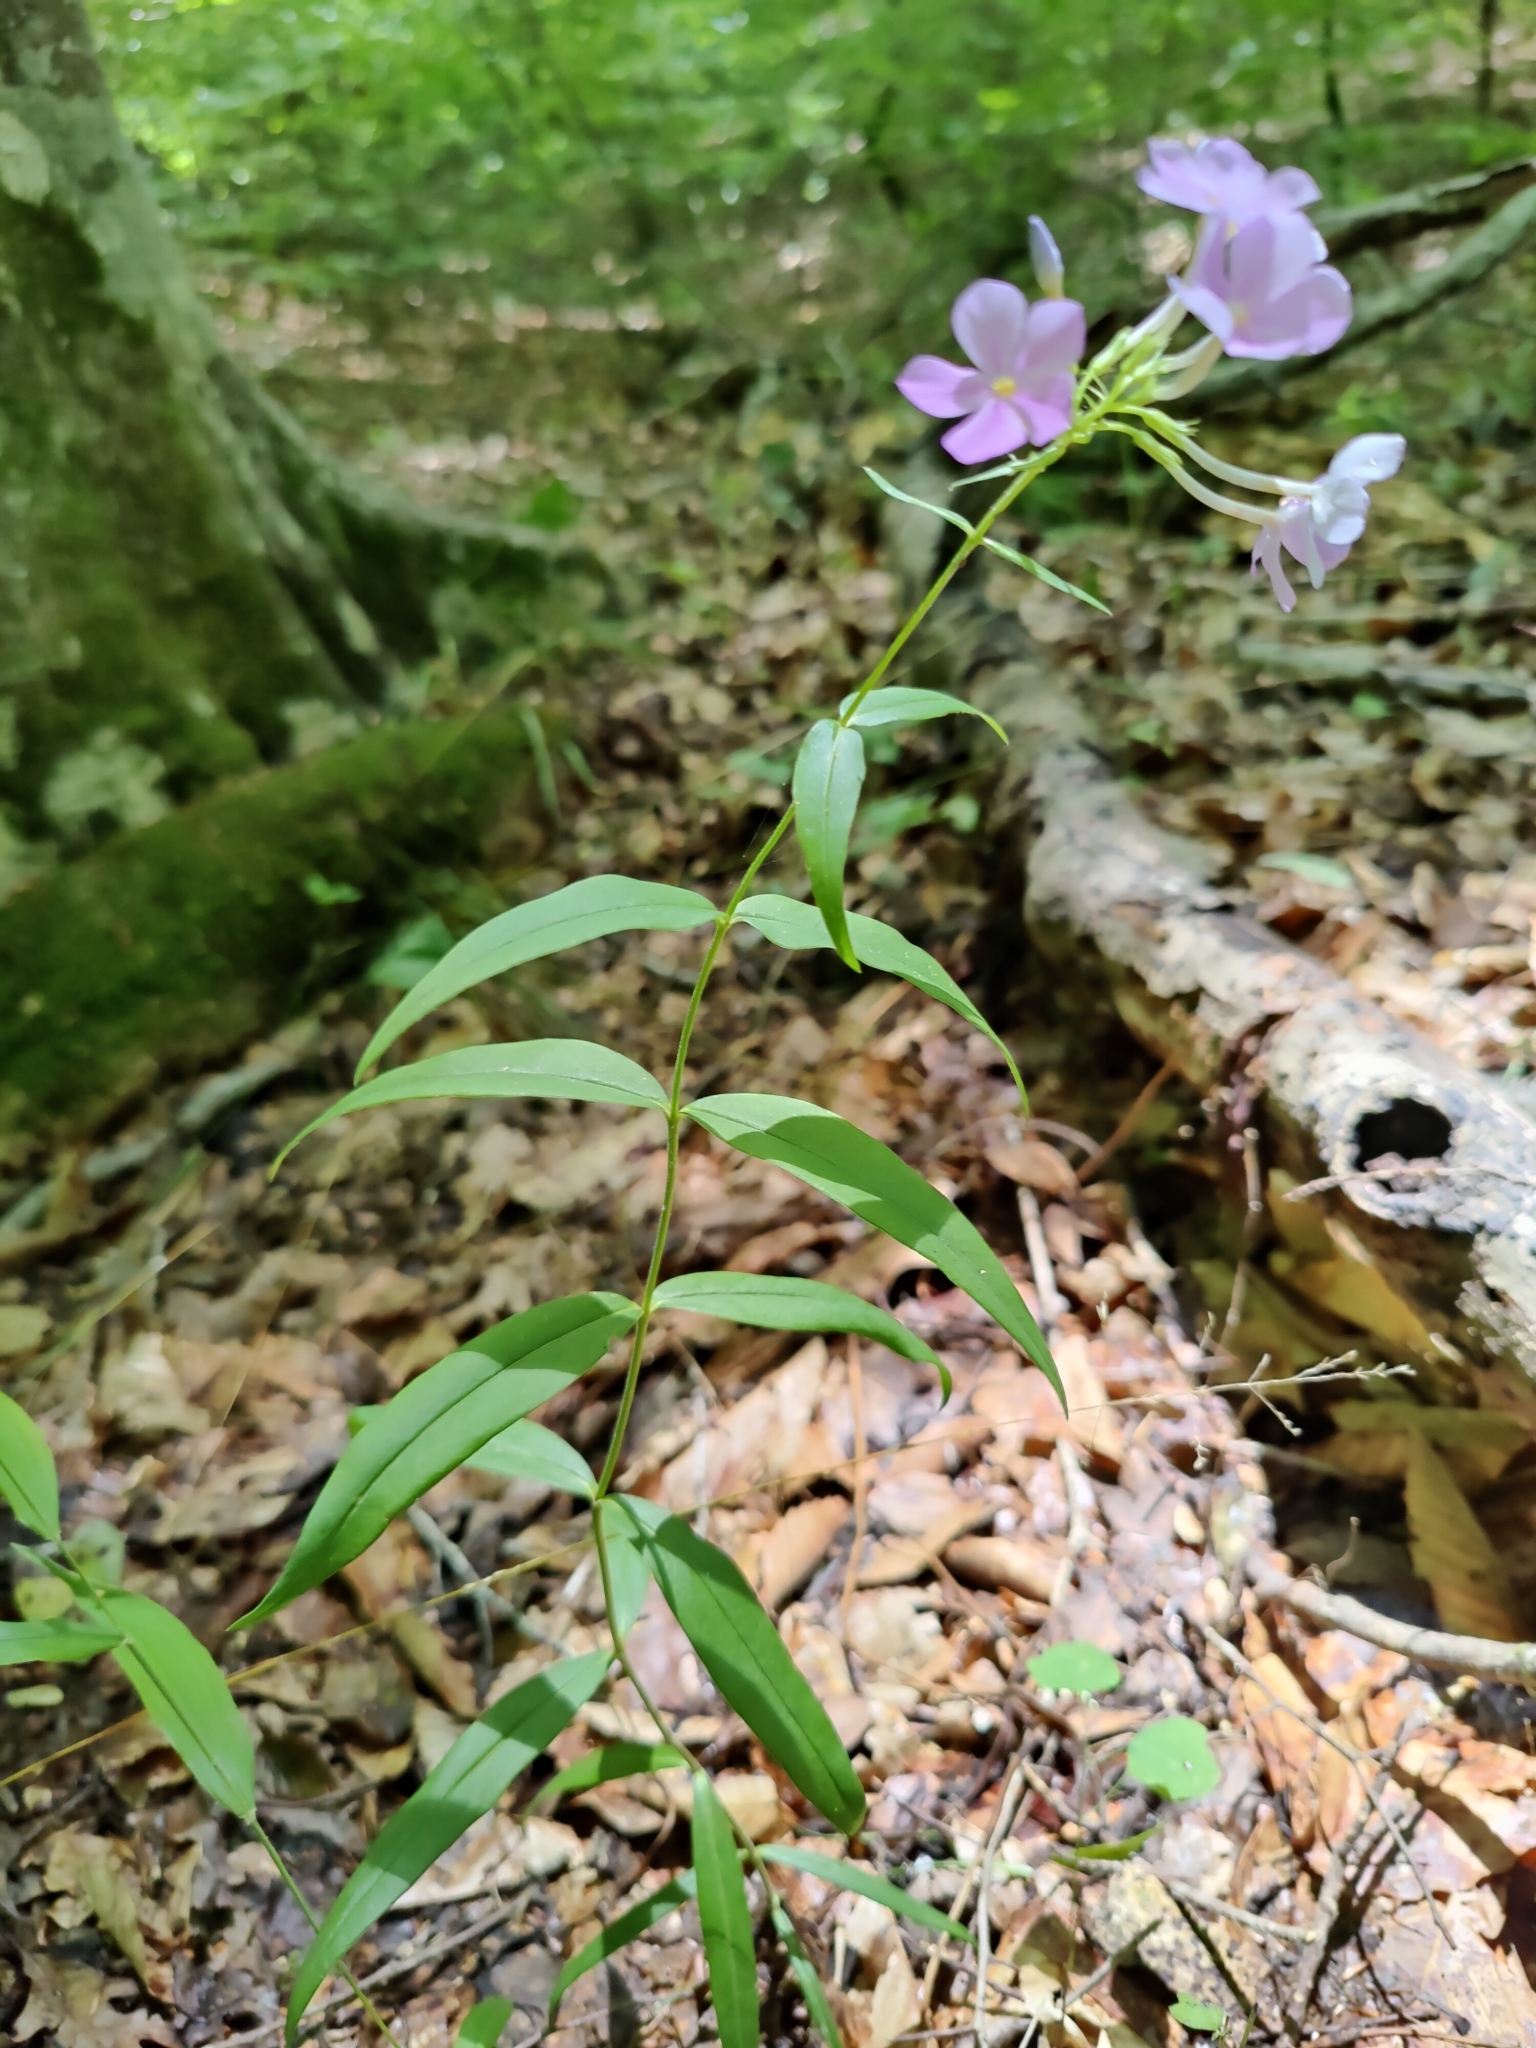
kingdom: Plantae
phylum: Tracheophyta
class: Magnoliopsida
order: Ericales
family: Polemoniaceae
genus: Phlox
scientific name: Phlox carolina
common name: Thick-leaf phlox
